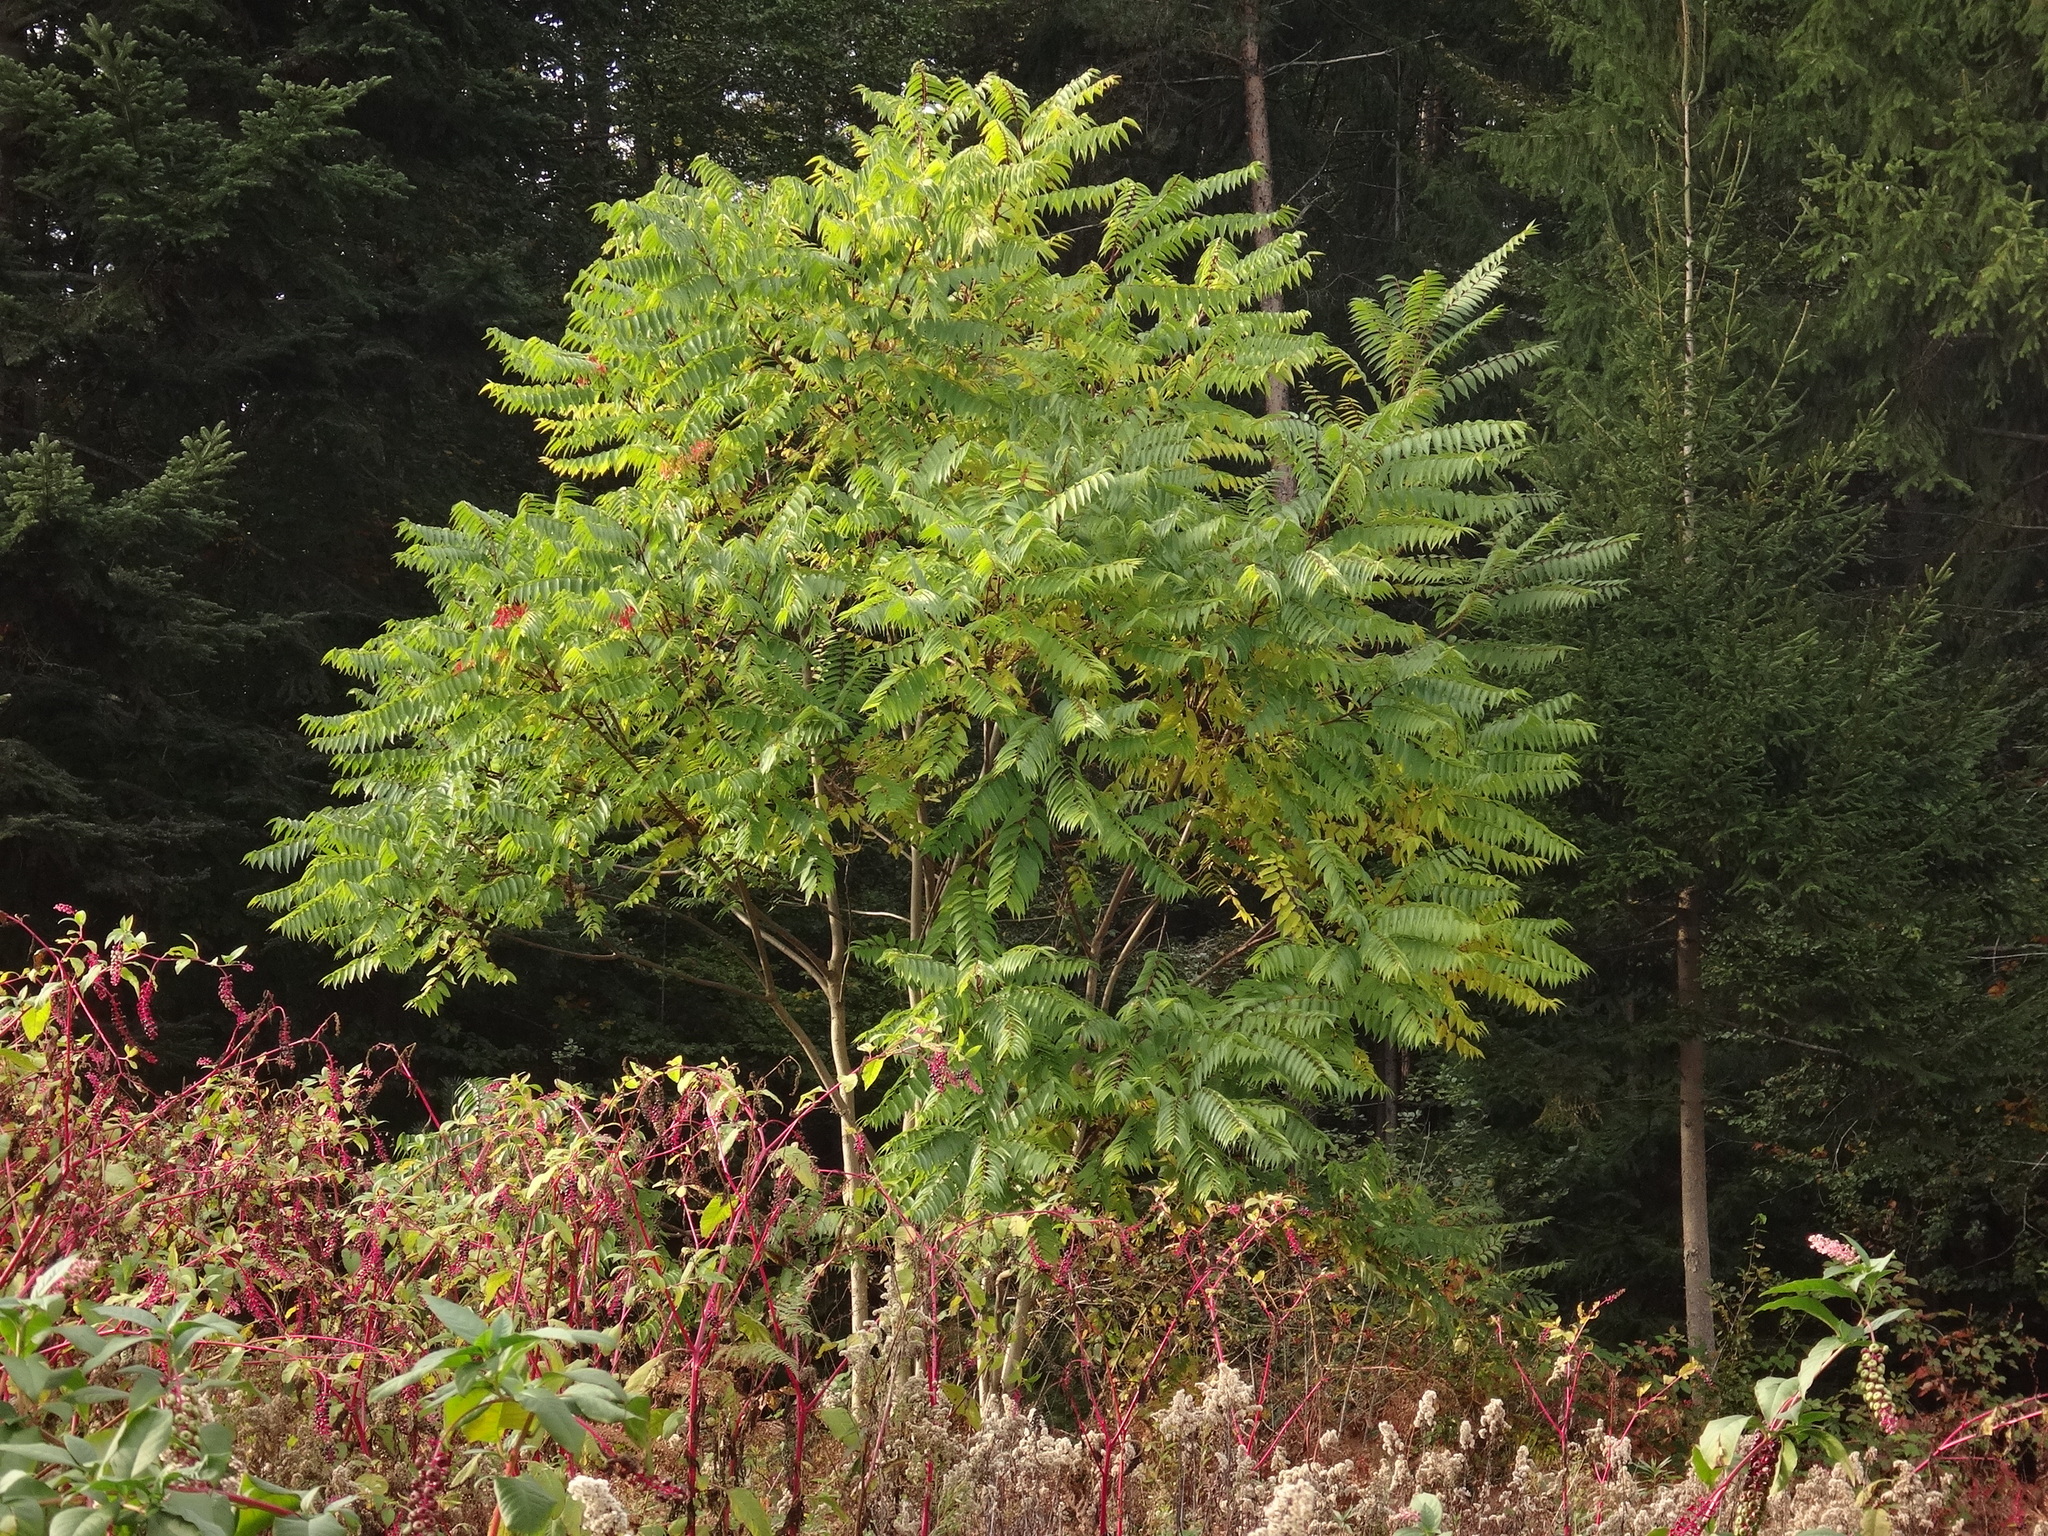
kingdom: Plantae
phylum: Tracheophyta
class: Magnoliopsida
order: Sapindales
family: Simaroubaceae
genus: Ailanthus
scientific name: Ailanthus altissima
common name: Tree-of-heaven
